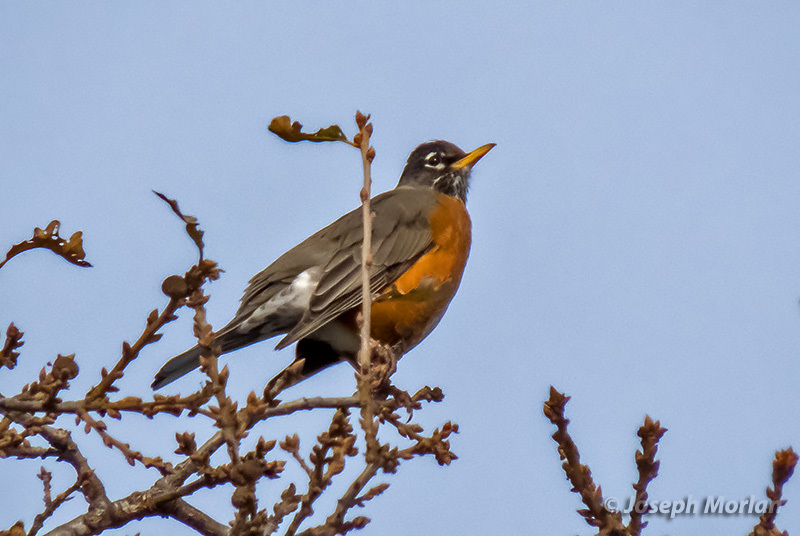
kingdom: Animalia
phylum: Chordata
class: Aves
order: Passeriformes
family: Turdidae
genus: Turdus
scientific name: Turdus migratorius
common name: American robin
